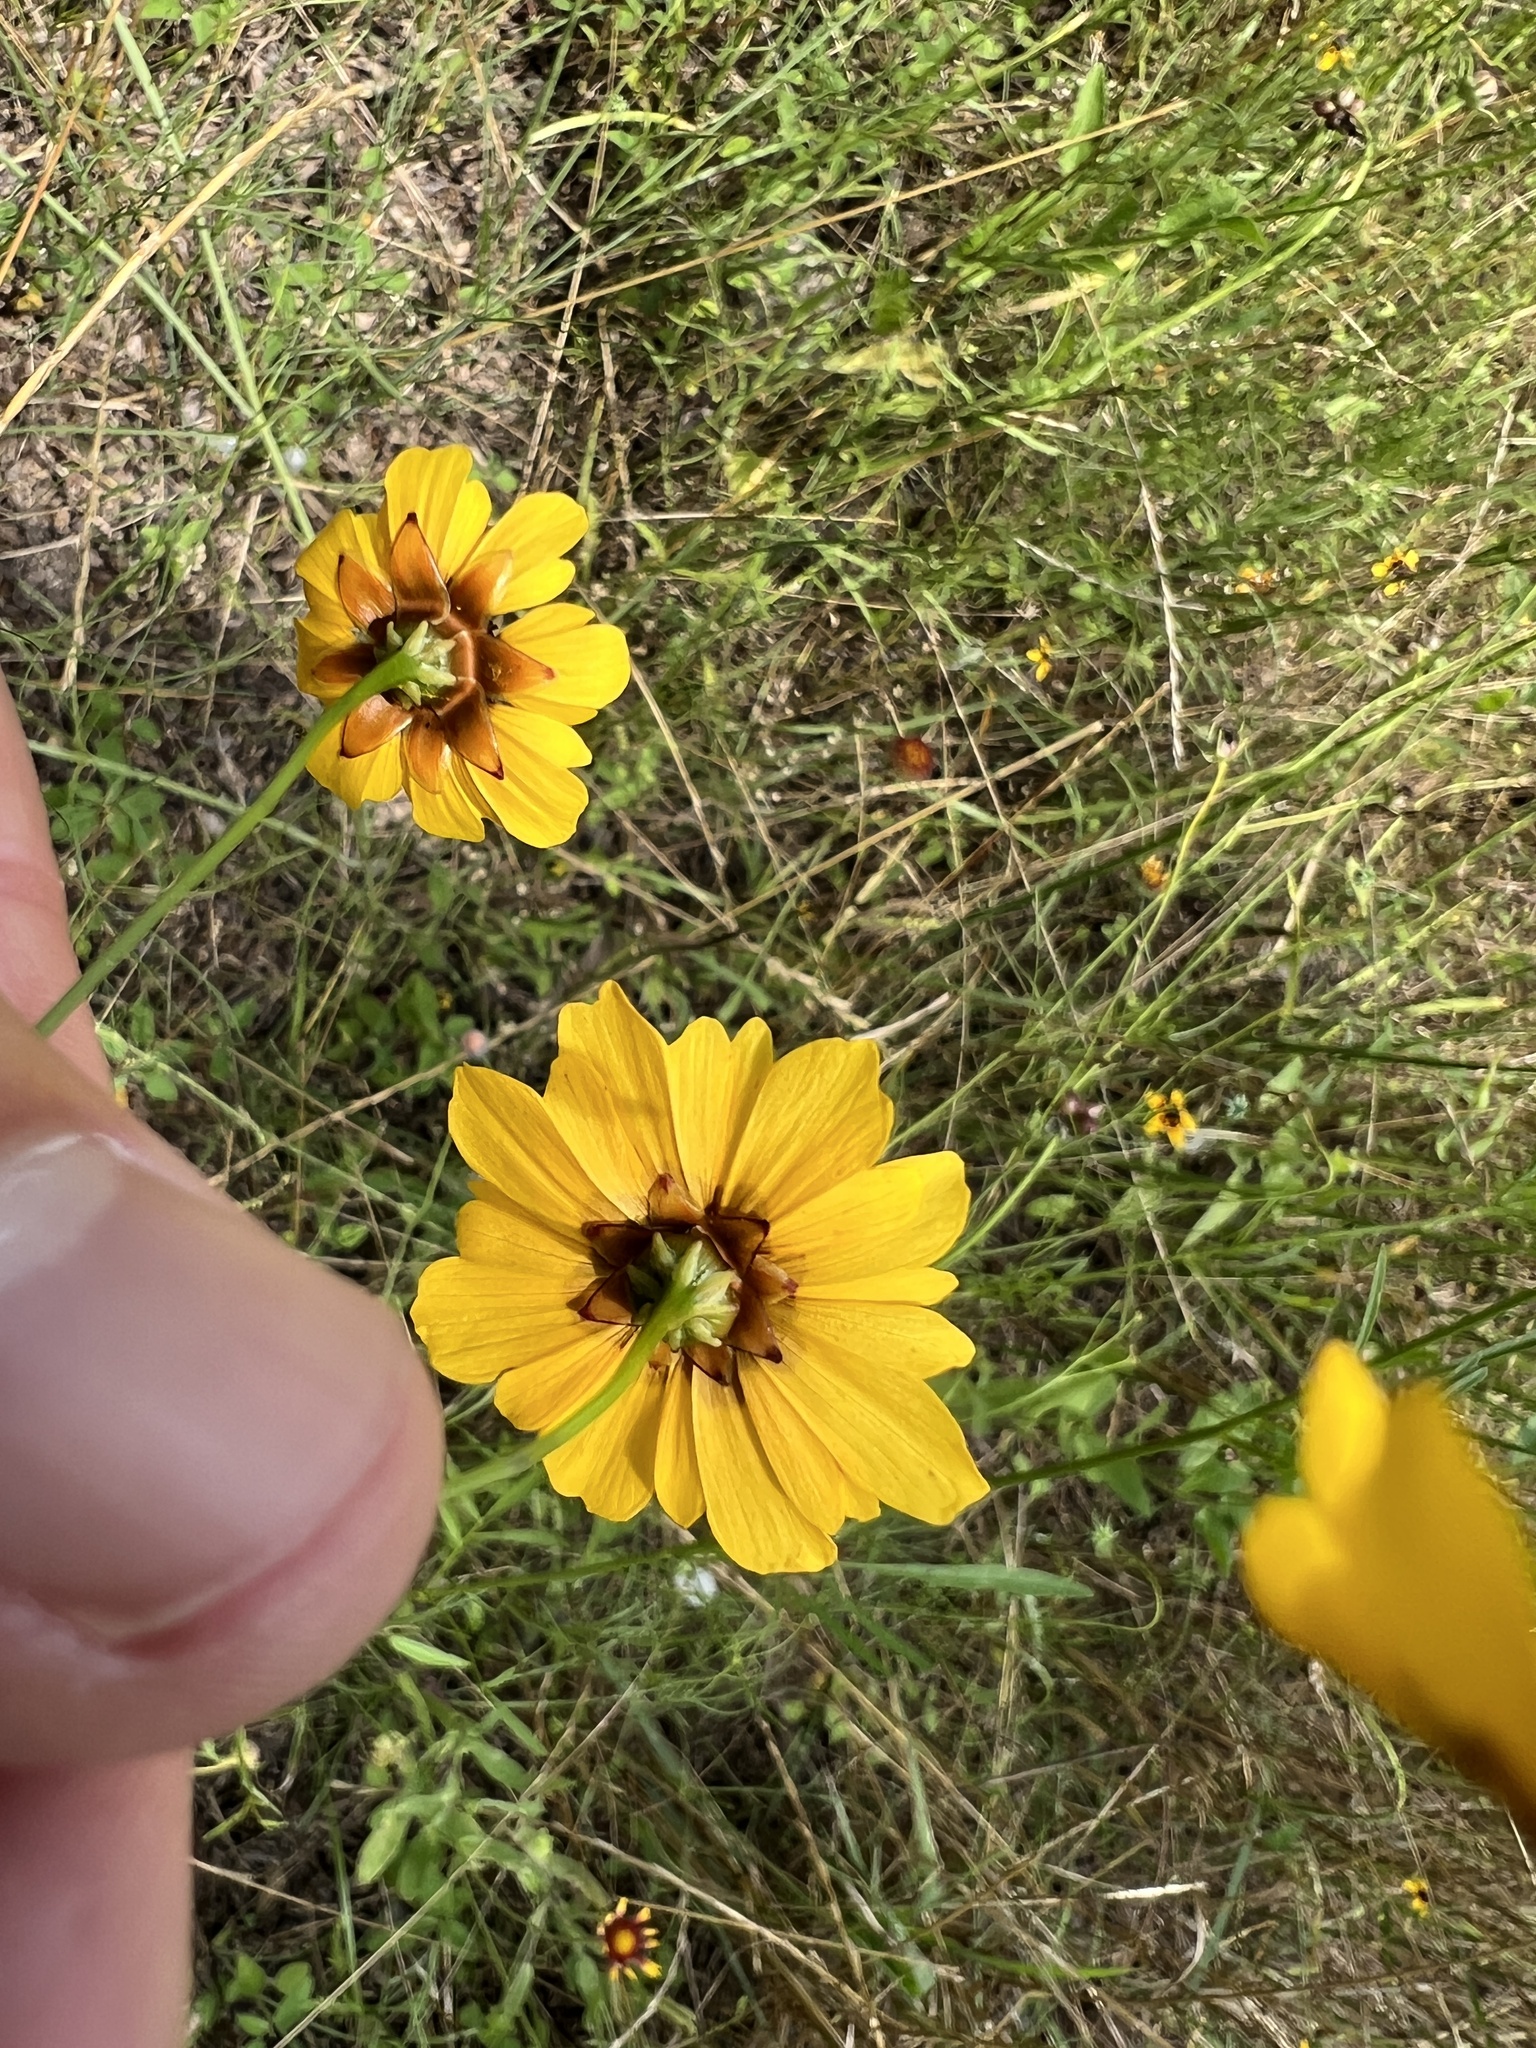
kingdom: Plantae
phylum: Tracheophyta
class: Magnoliopsida
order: Asterales
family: Asteraceae
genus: Coreopsis
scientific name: Coreopsis tinctoria
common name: Garden tickseed
